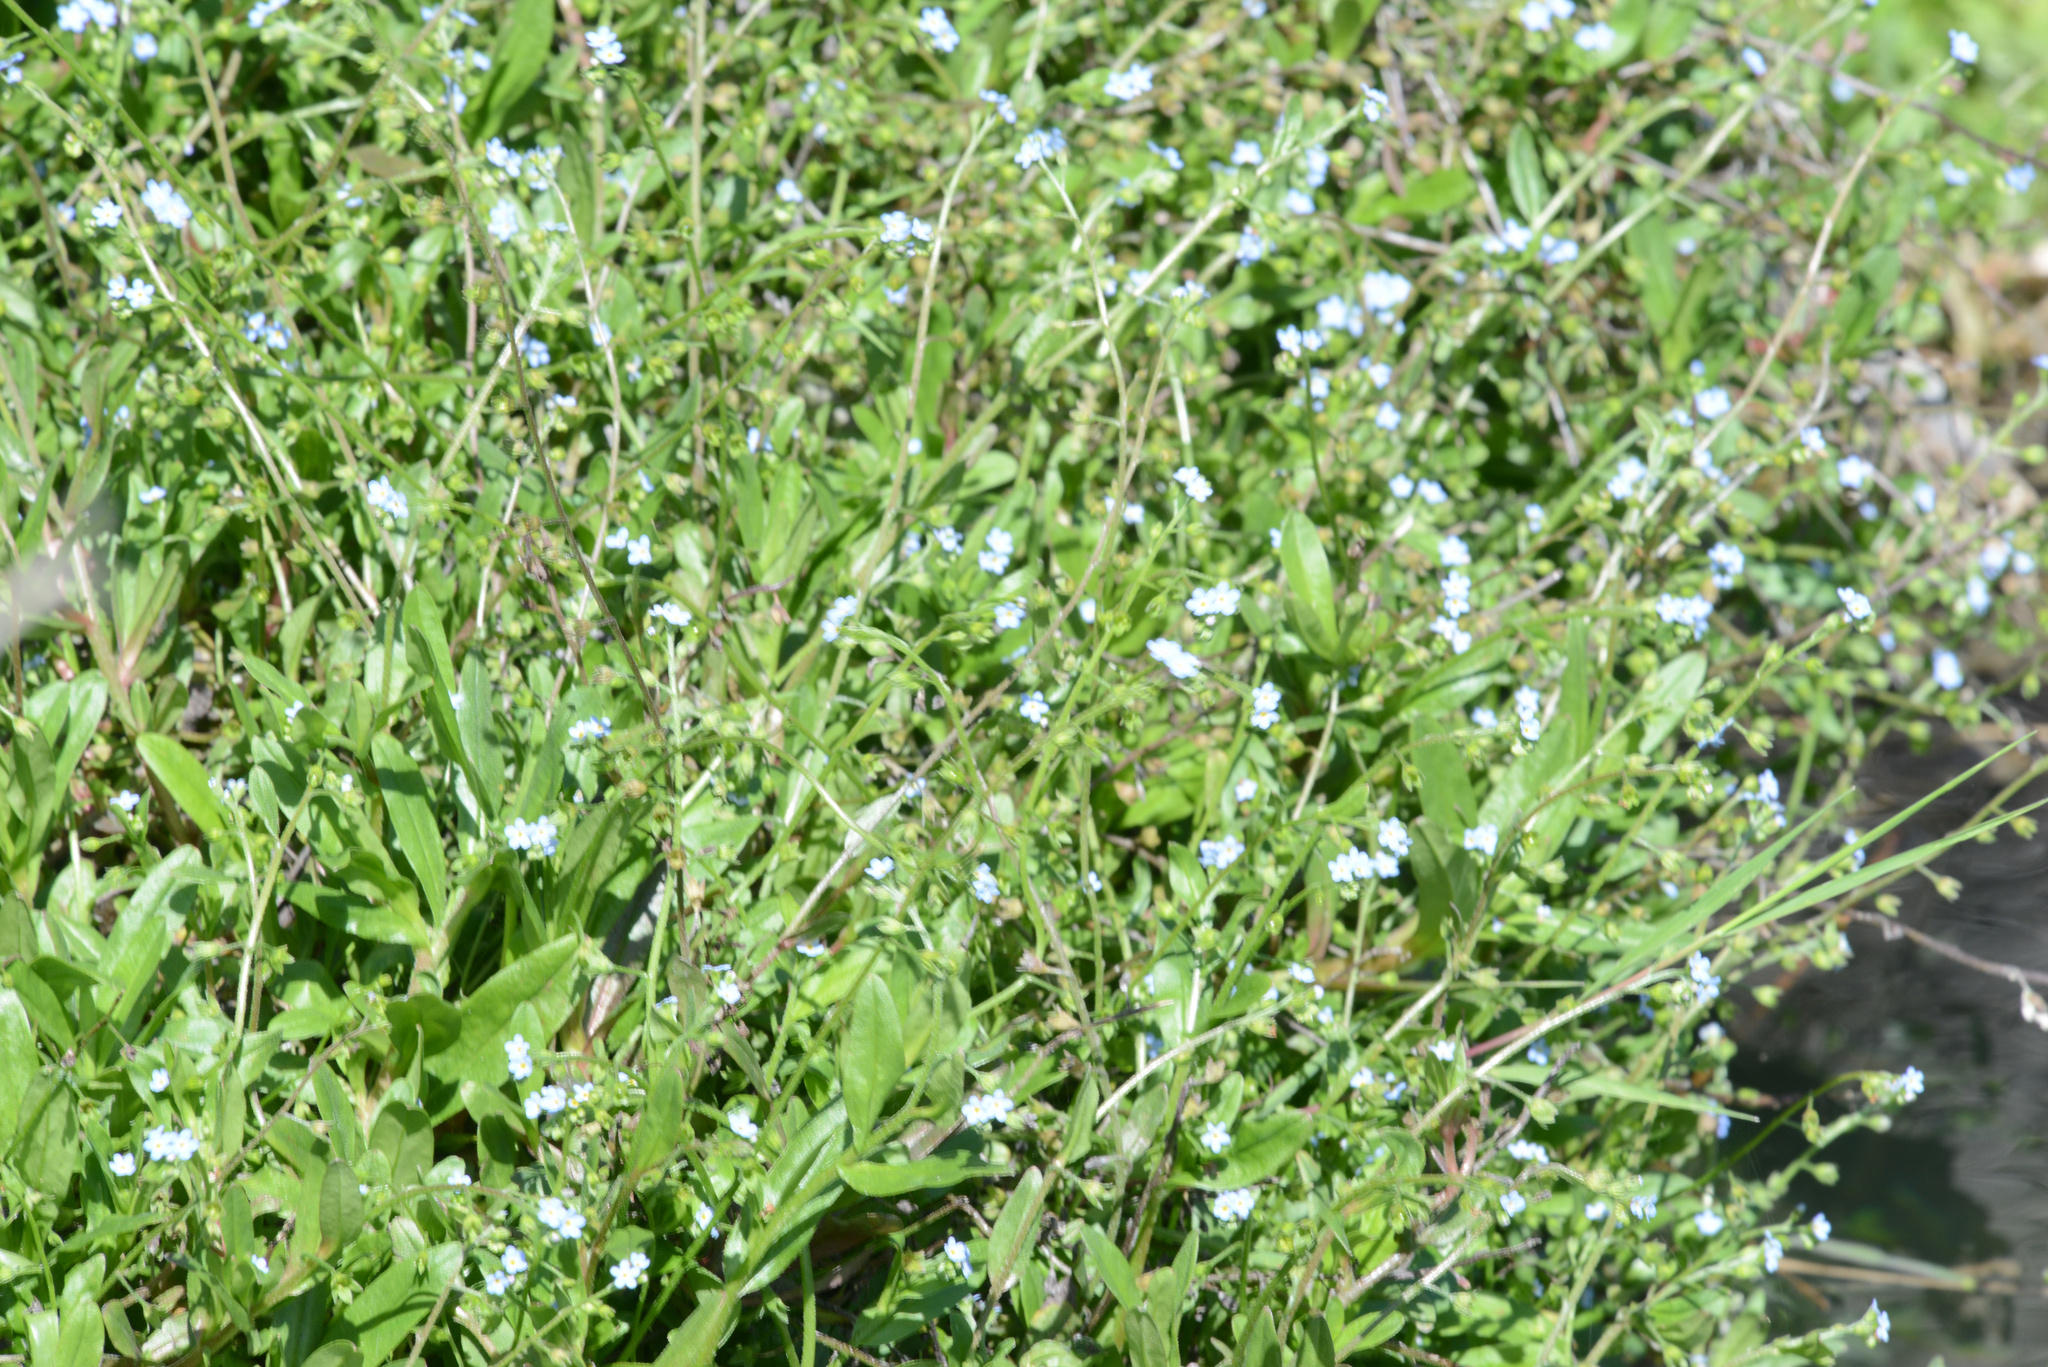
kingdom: Plantae
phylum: Tracheophyta
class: Magnoliopsida
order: Boraginales
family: Boraginaceae
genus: Myosotis
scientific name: Myosotis sylvatica
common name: Wood forget-me-not
